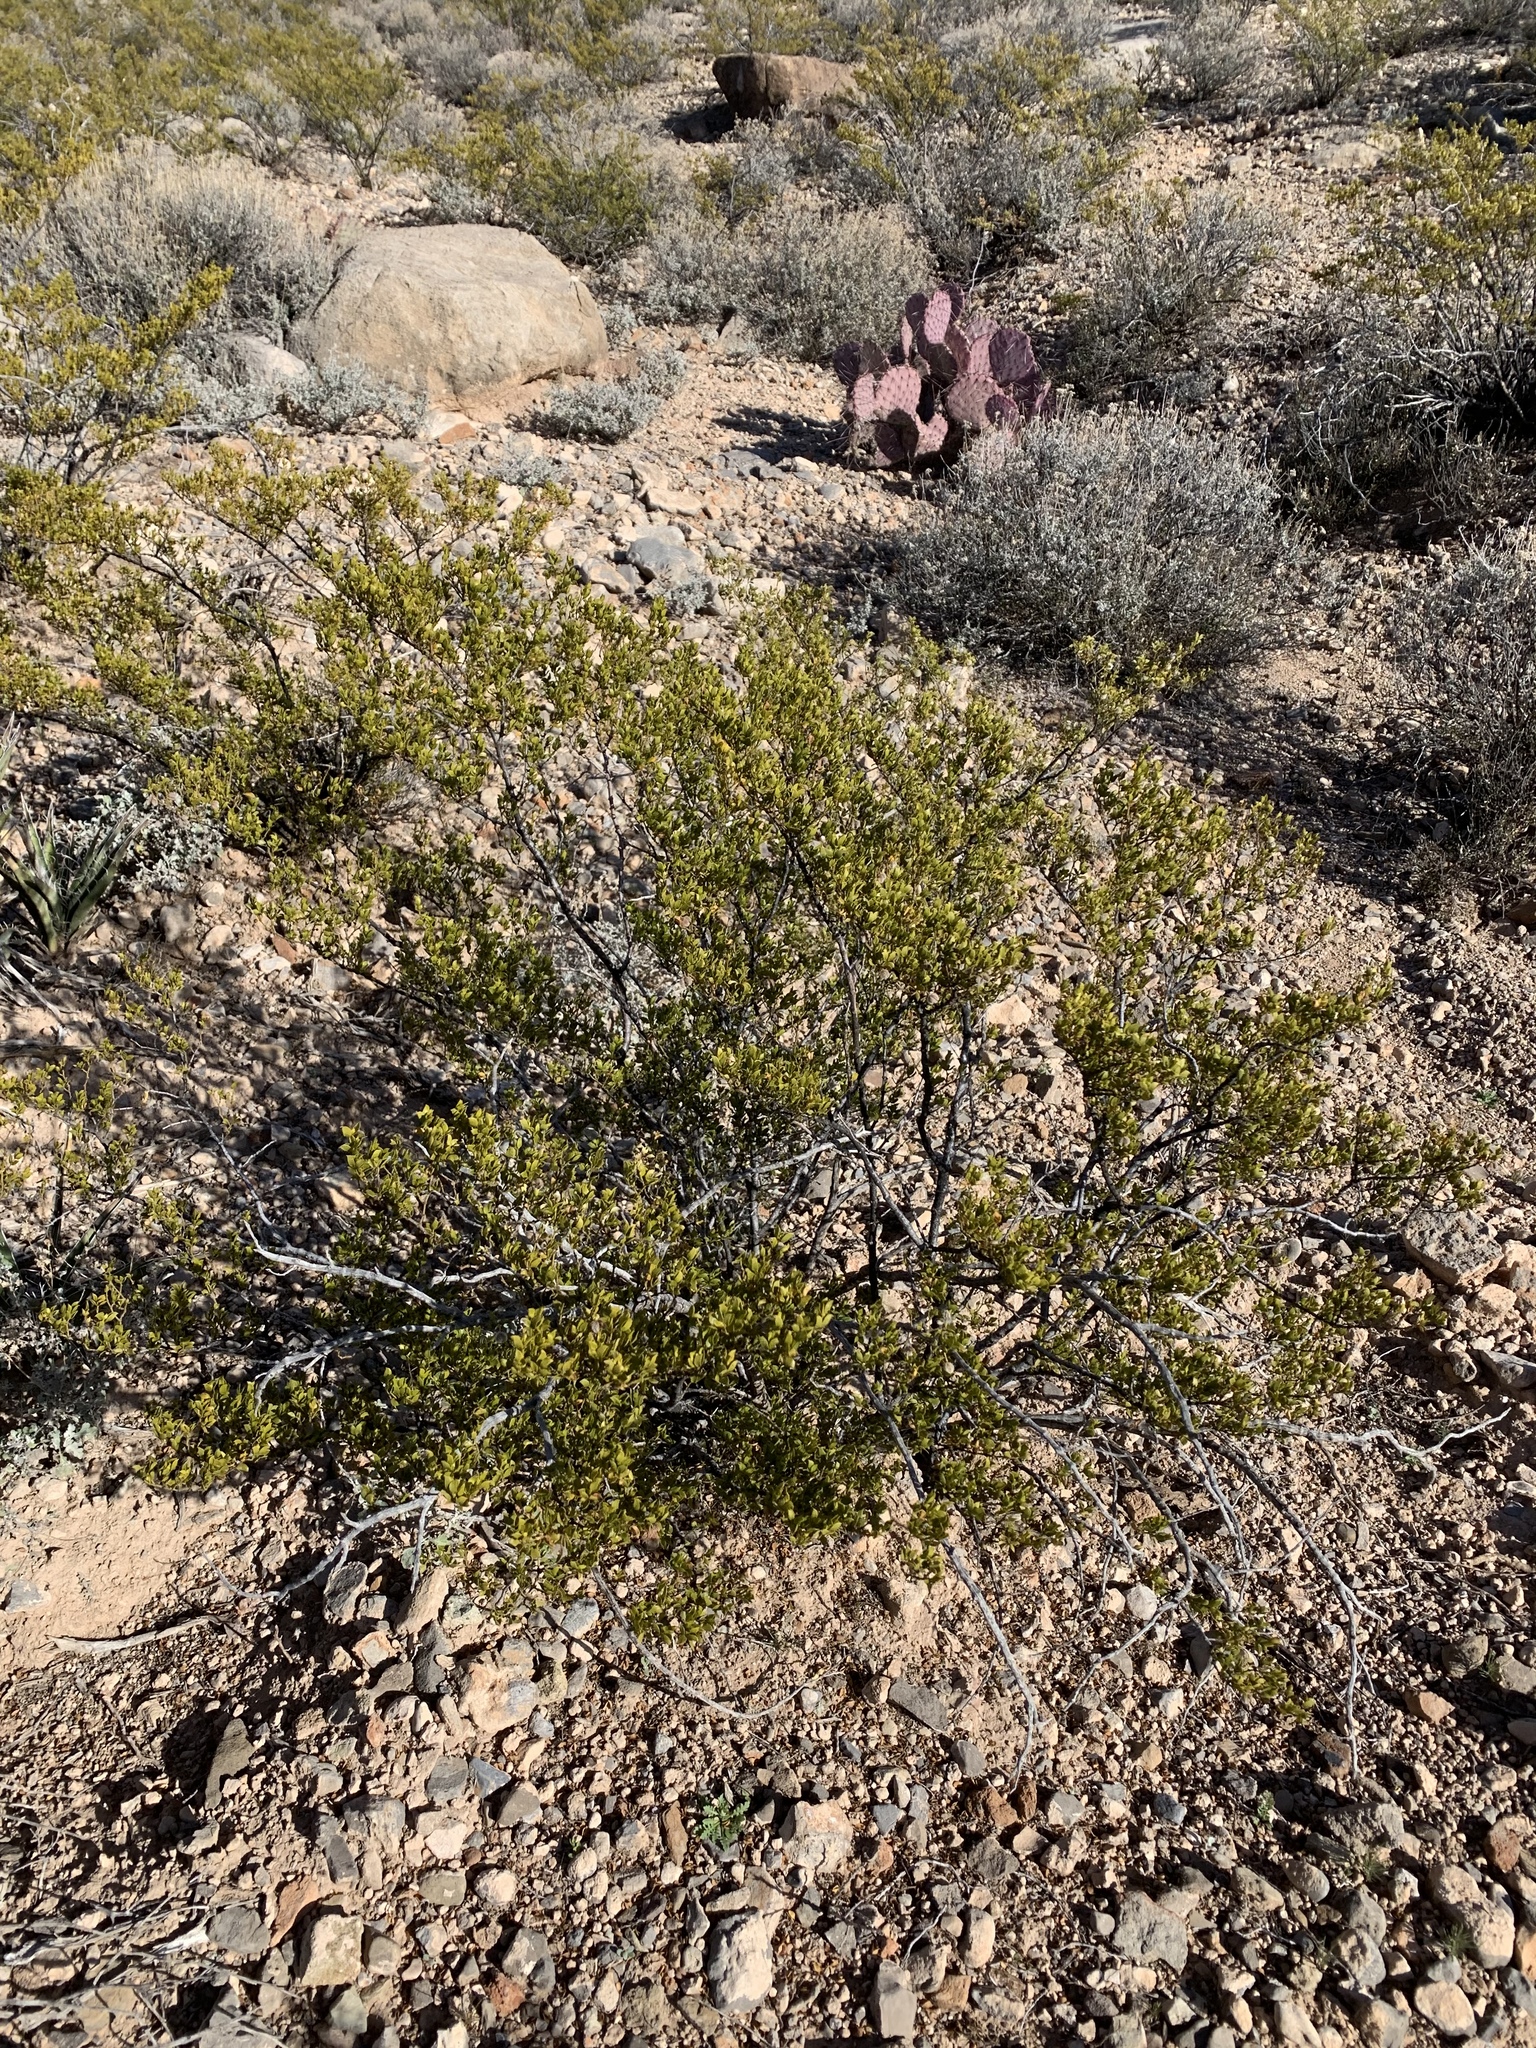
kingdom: Plantae
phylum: Tracheophyta
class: Magnoliopsida
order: Zygophyllales
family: Zygophyllaceae
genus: Larrea
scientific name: Larrea tridentata
